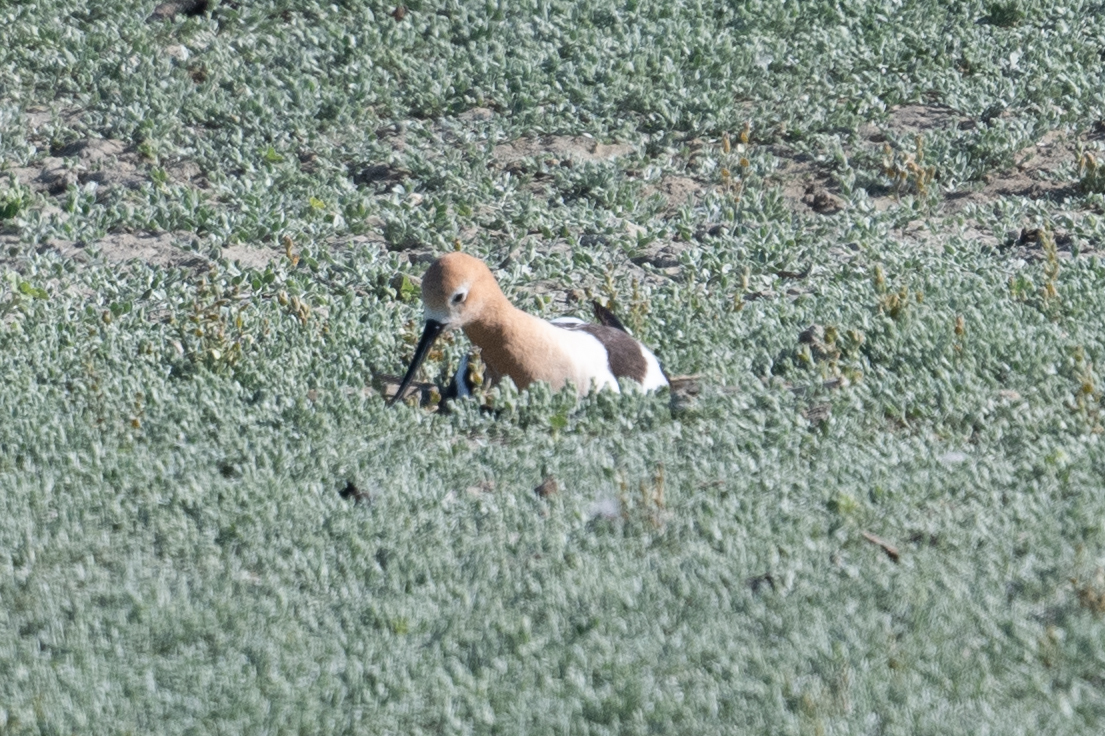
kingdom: Animalia
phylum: Chordata
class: Aves
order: Charadriiformes
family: Recurvirostridae
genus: Recurvirostra
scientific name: Recurvirostra americana
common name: American avocet
